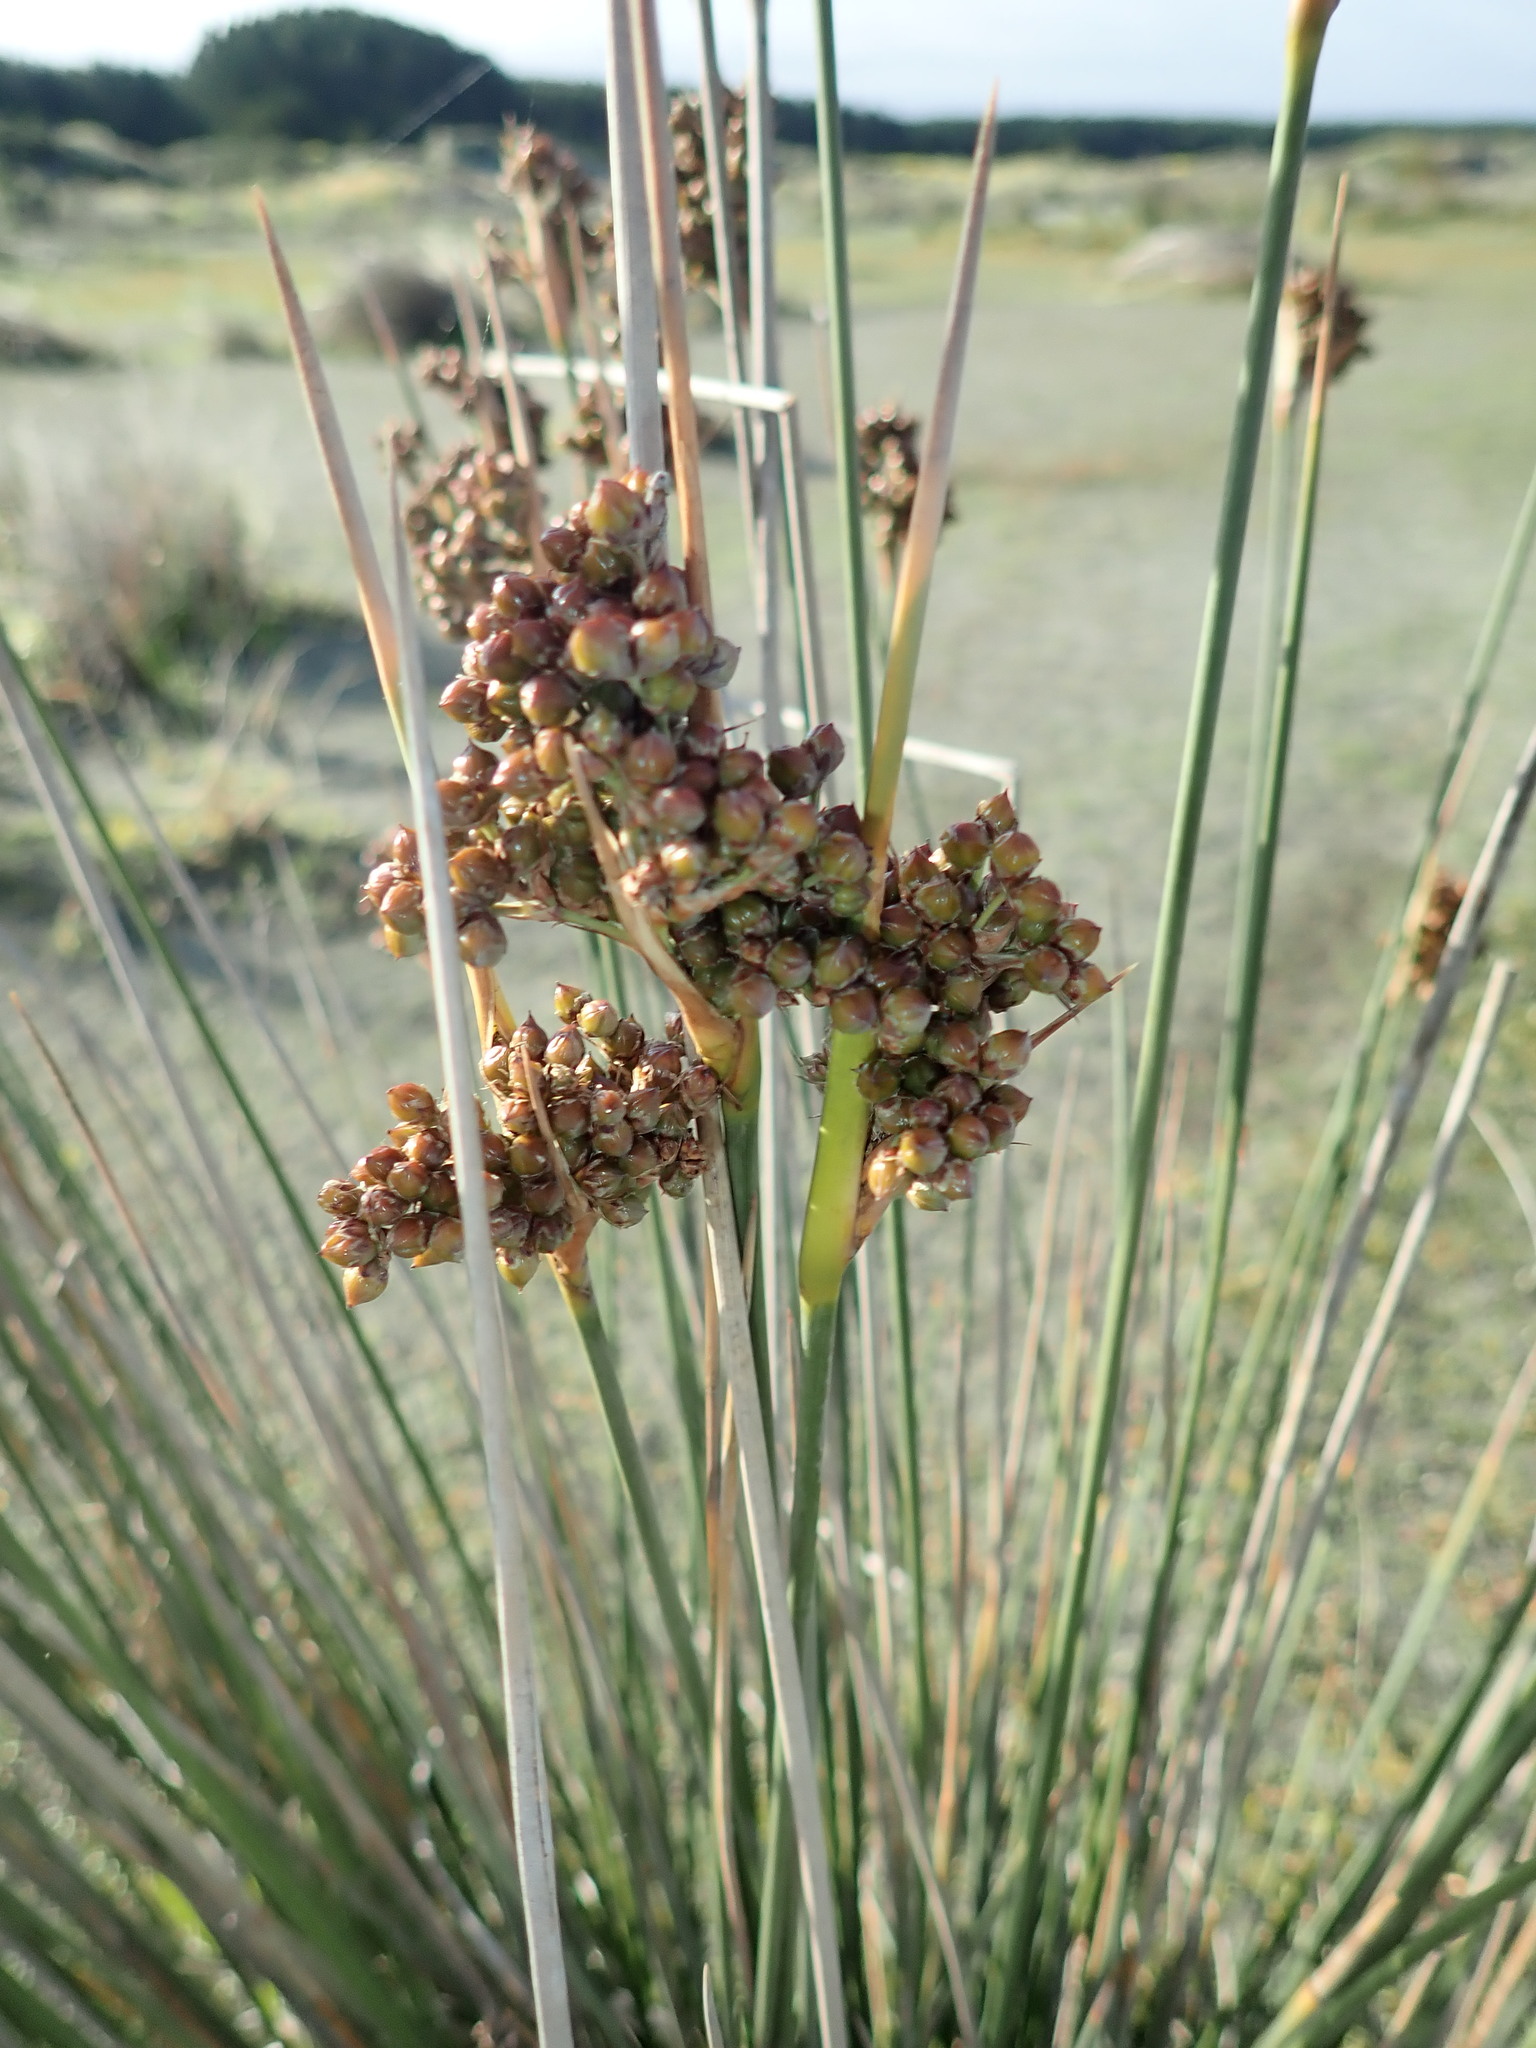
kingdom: Plantae
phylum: Tracheophyta
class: Liliopsida
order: Poales
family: Juncaceae
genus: Juncus
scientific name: Juncus acutus
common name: Sharp rush
